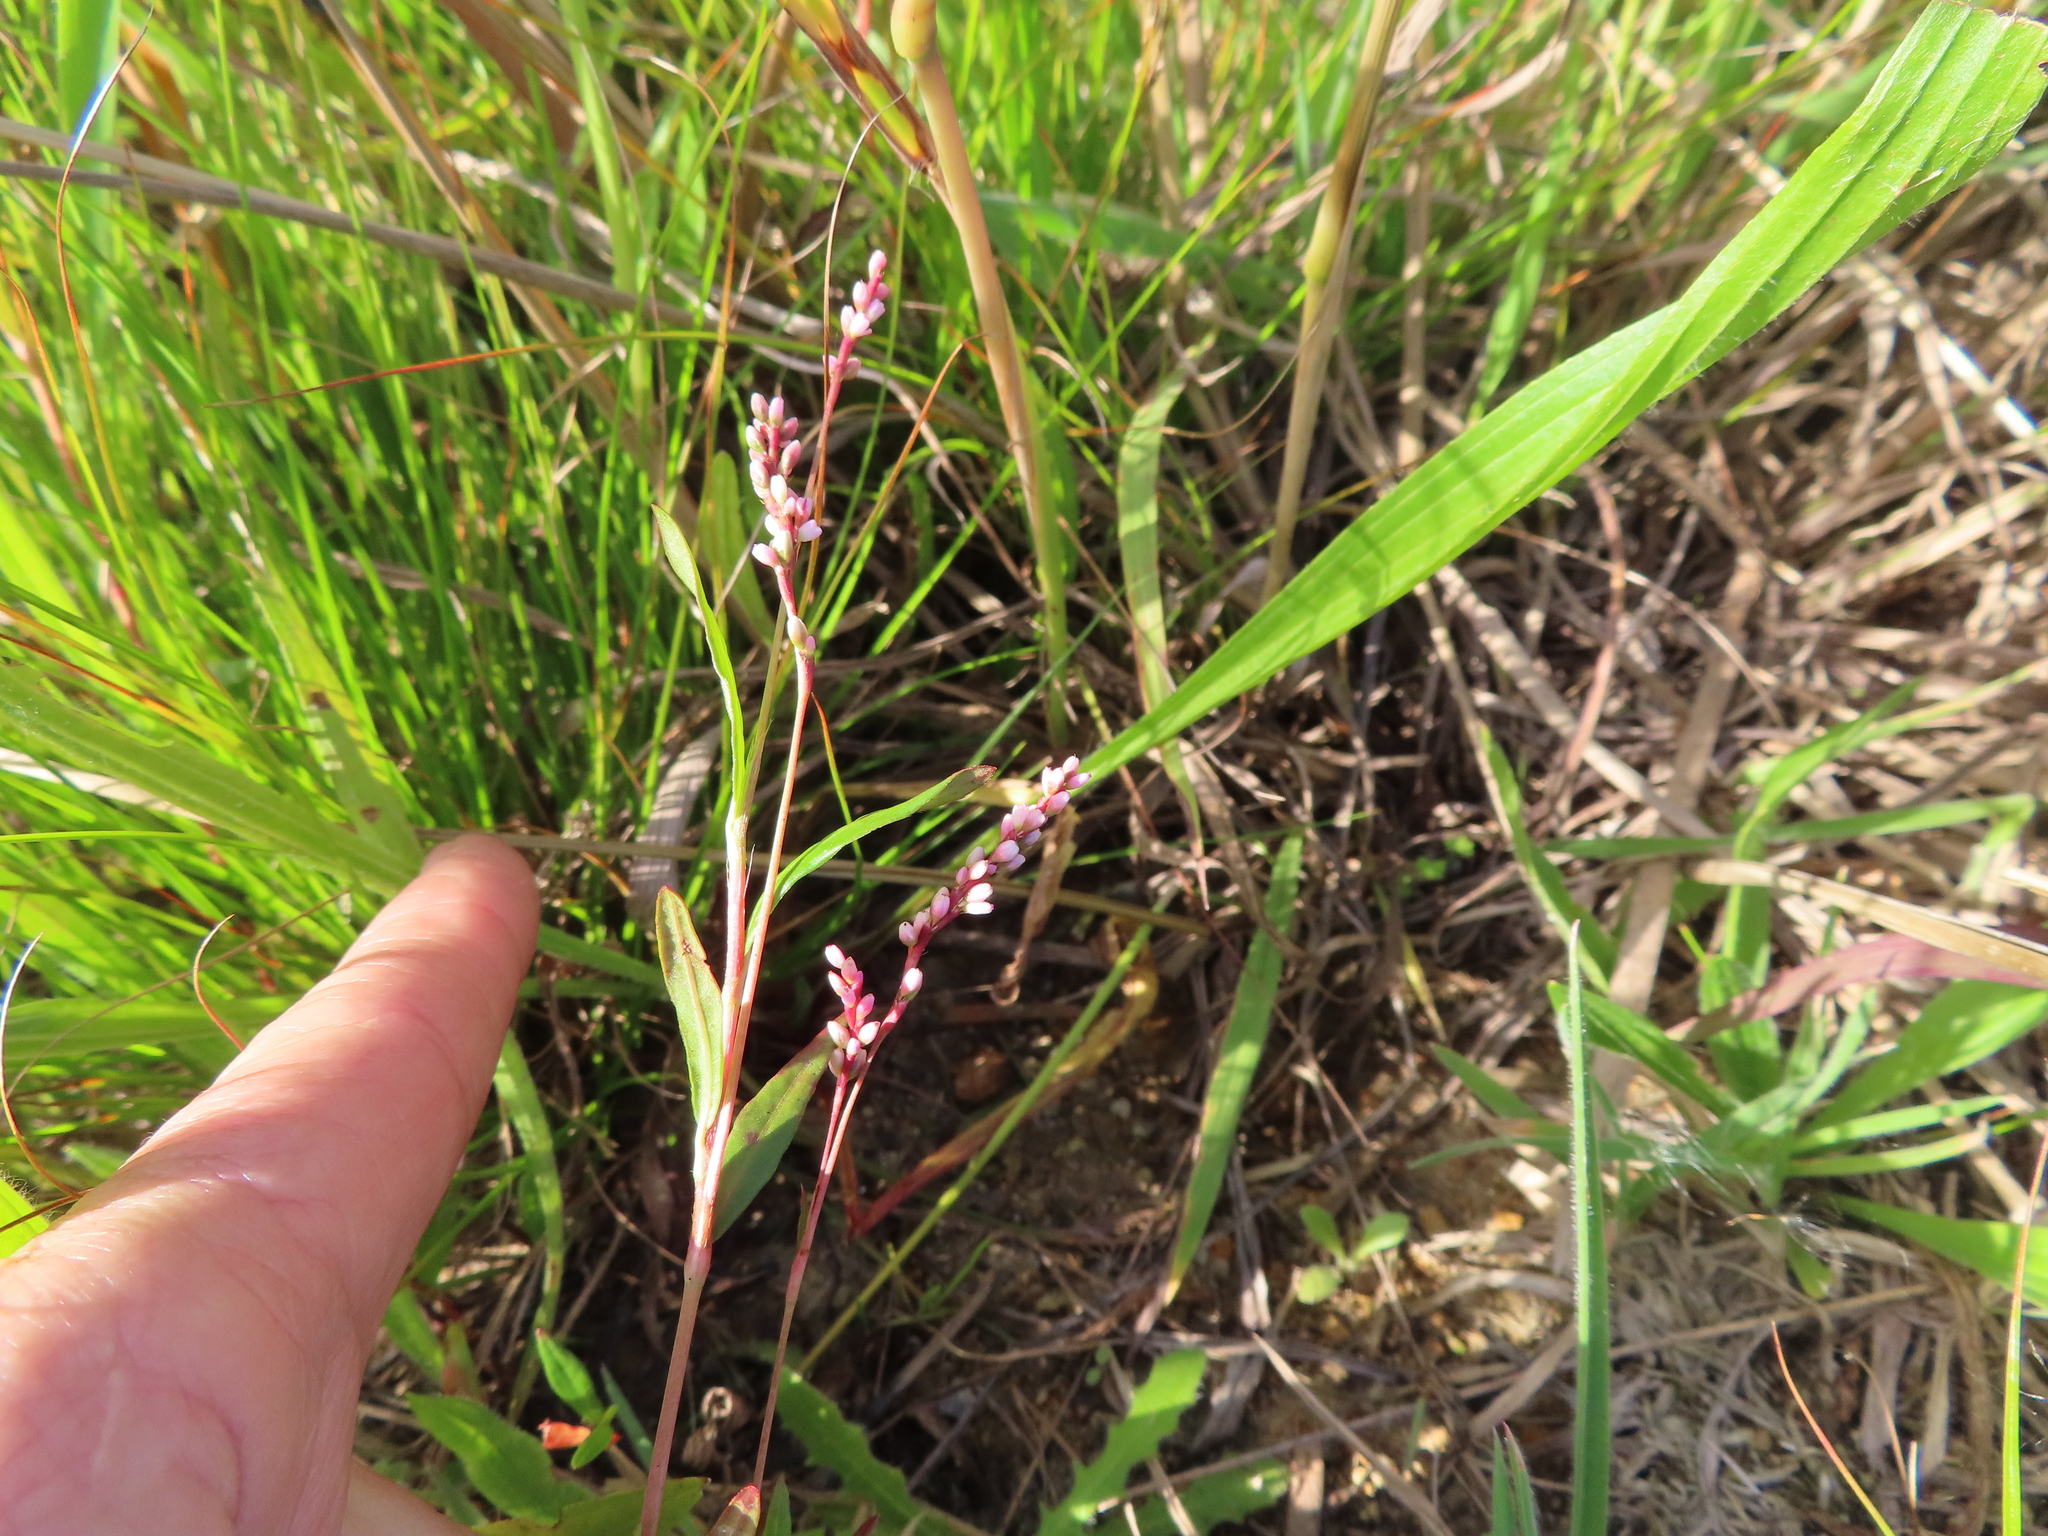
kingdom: Plantae
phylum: Tracheophyta
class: Magnoliopsida
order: Caryophyllales
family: Polygonaceae
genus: Persicaria
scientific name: Persicaria decipiens
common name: Willow-weed
